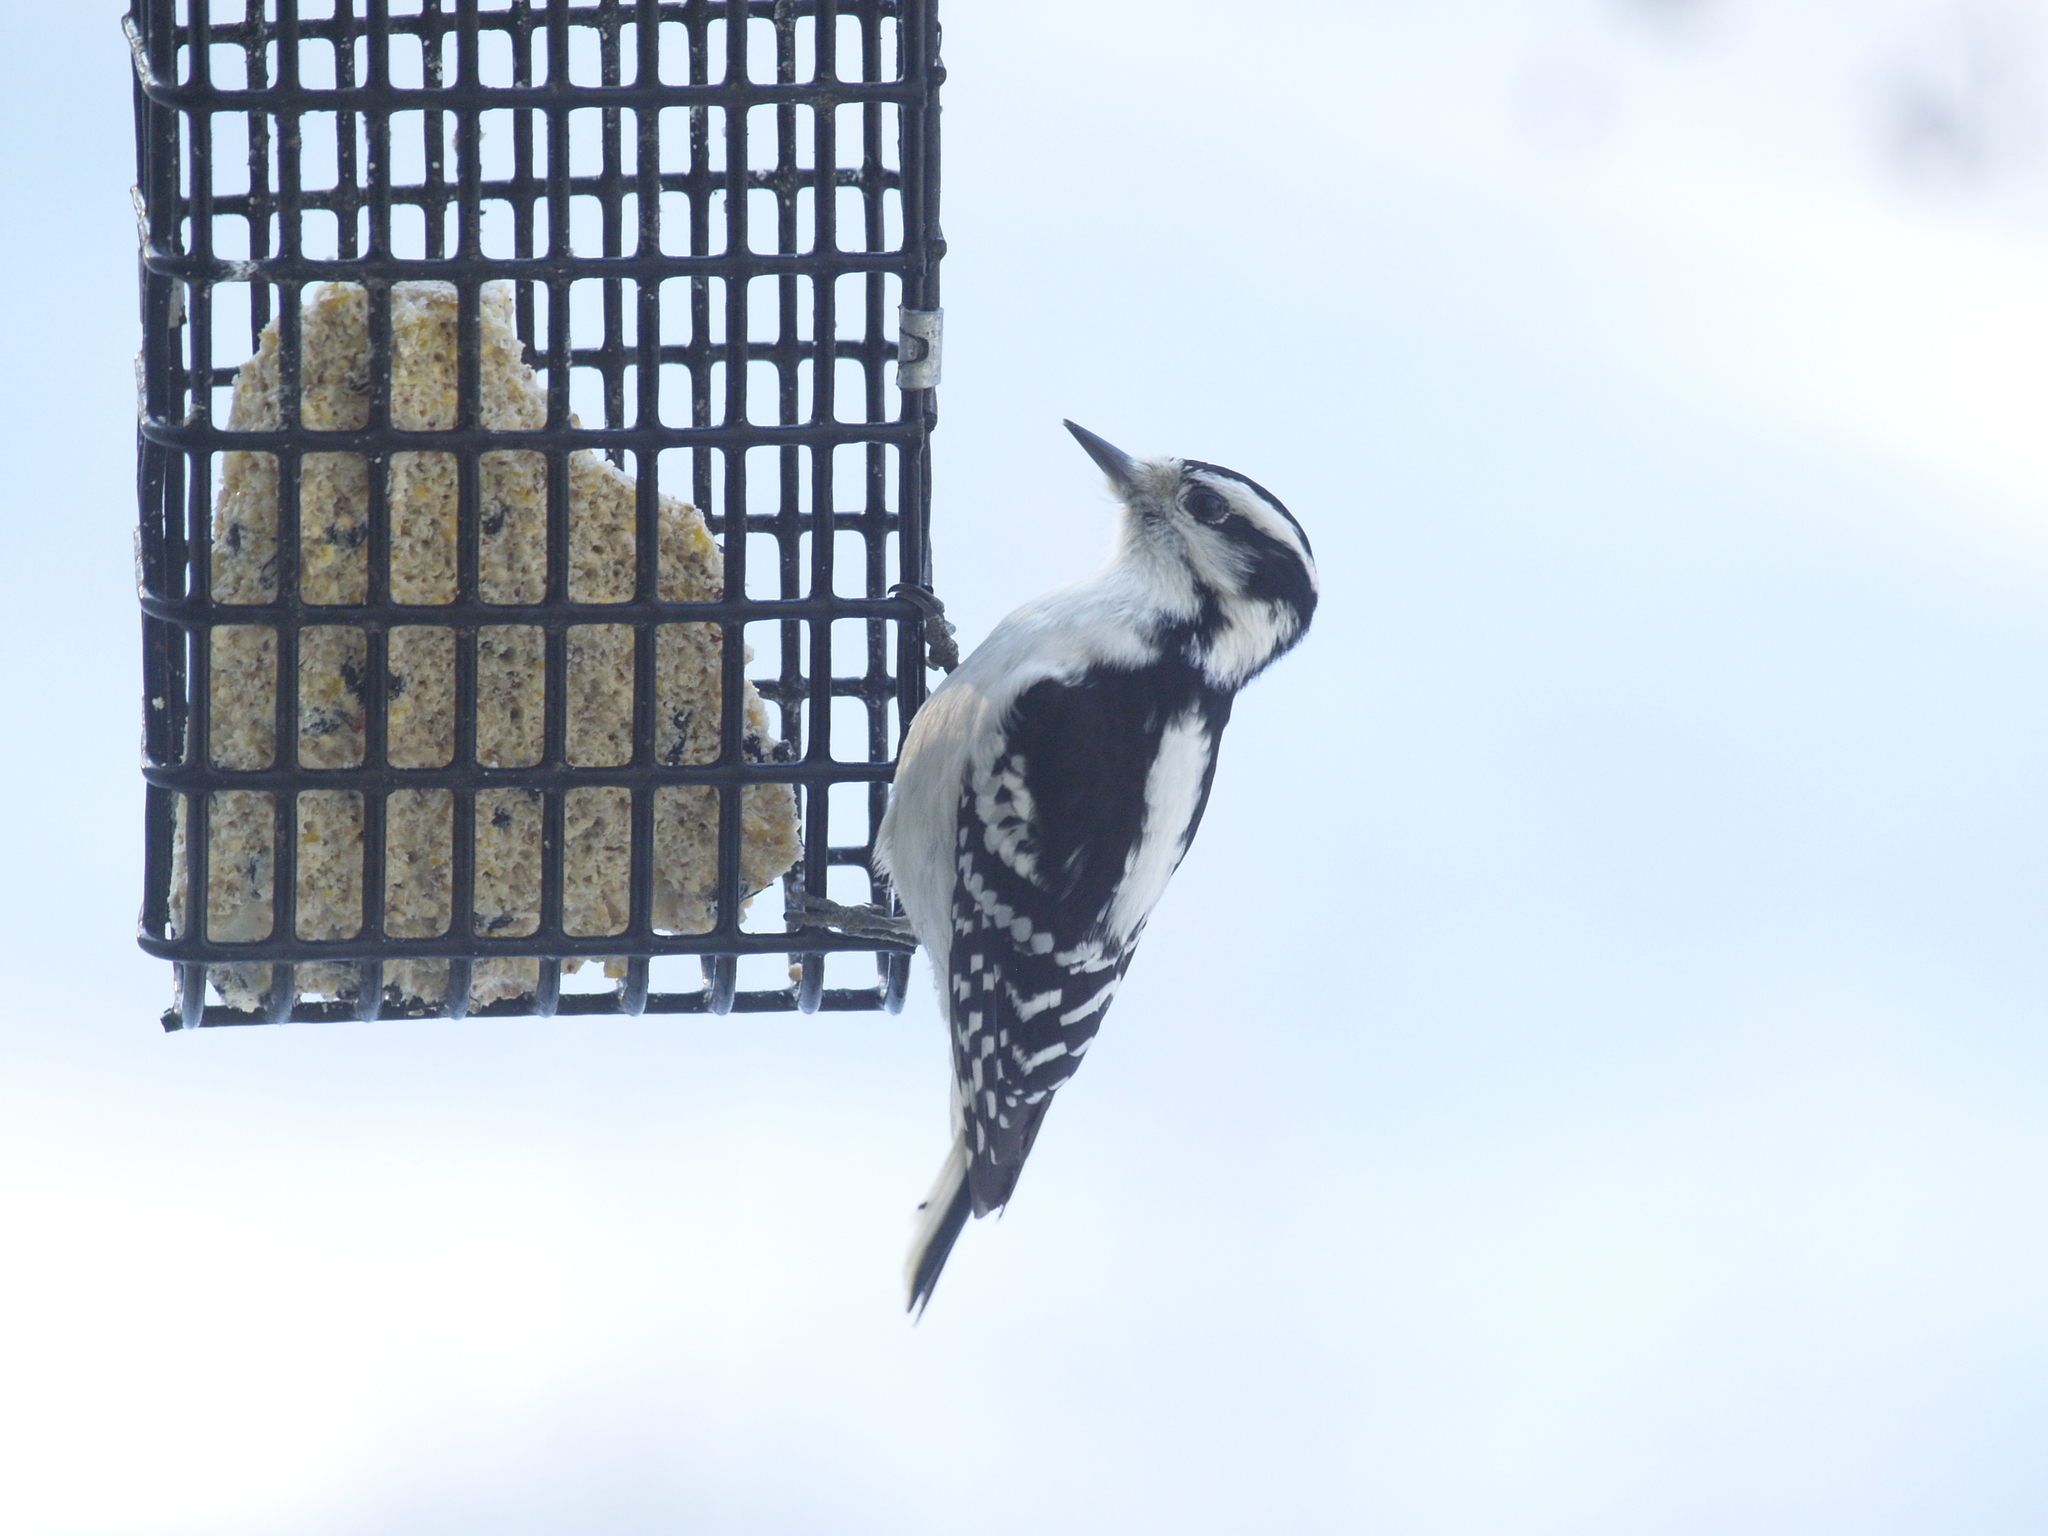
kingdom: Animalia
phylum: Chordata
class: Aves
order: Piciformes
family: Picidae
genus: Dryobates
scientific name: Dryobates pubescens
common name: Downy woodpecker
